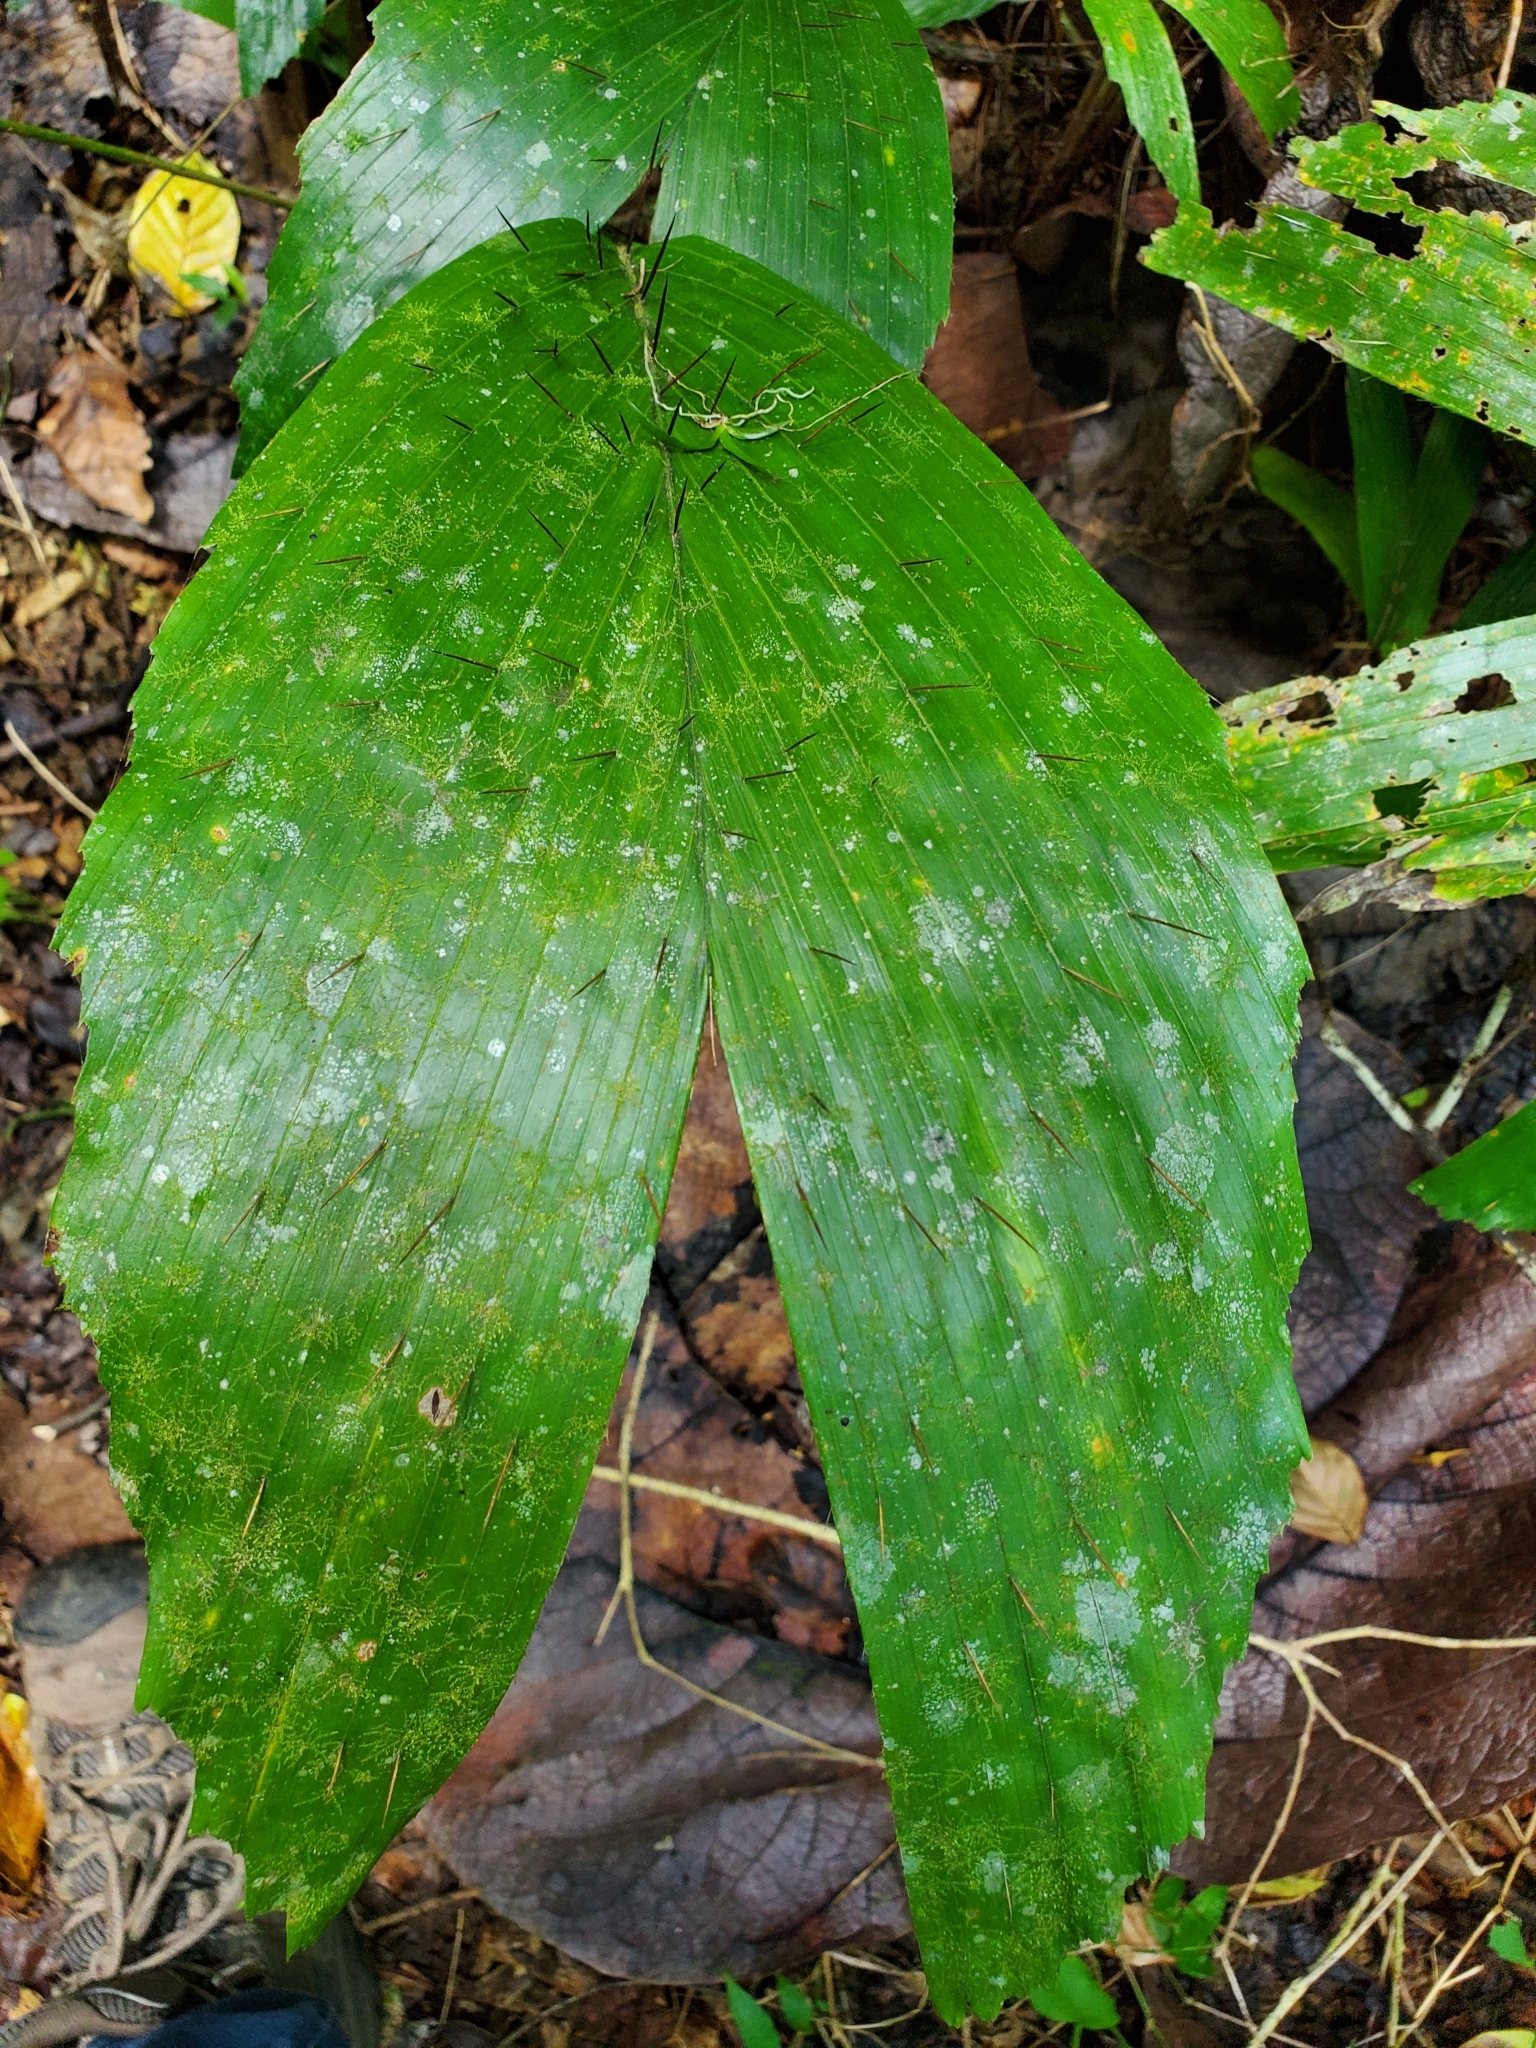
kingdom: Plantae
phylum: Tracheophyta
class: Liliopsida
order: Arecales
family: Arecaceae
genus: Aiphanes
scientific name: Aiphanes minima
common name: Grigri
